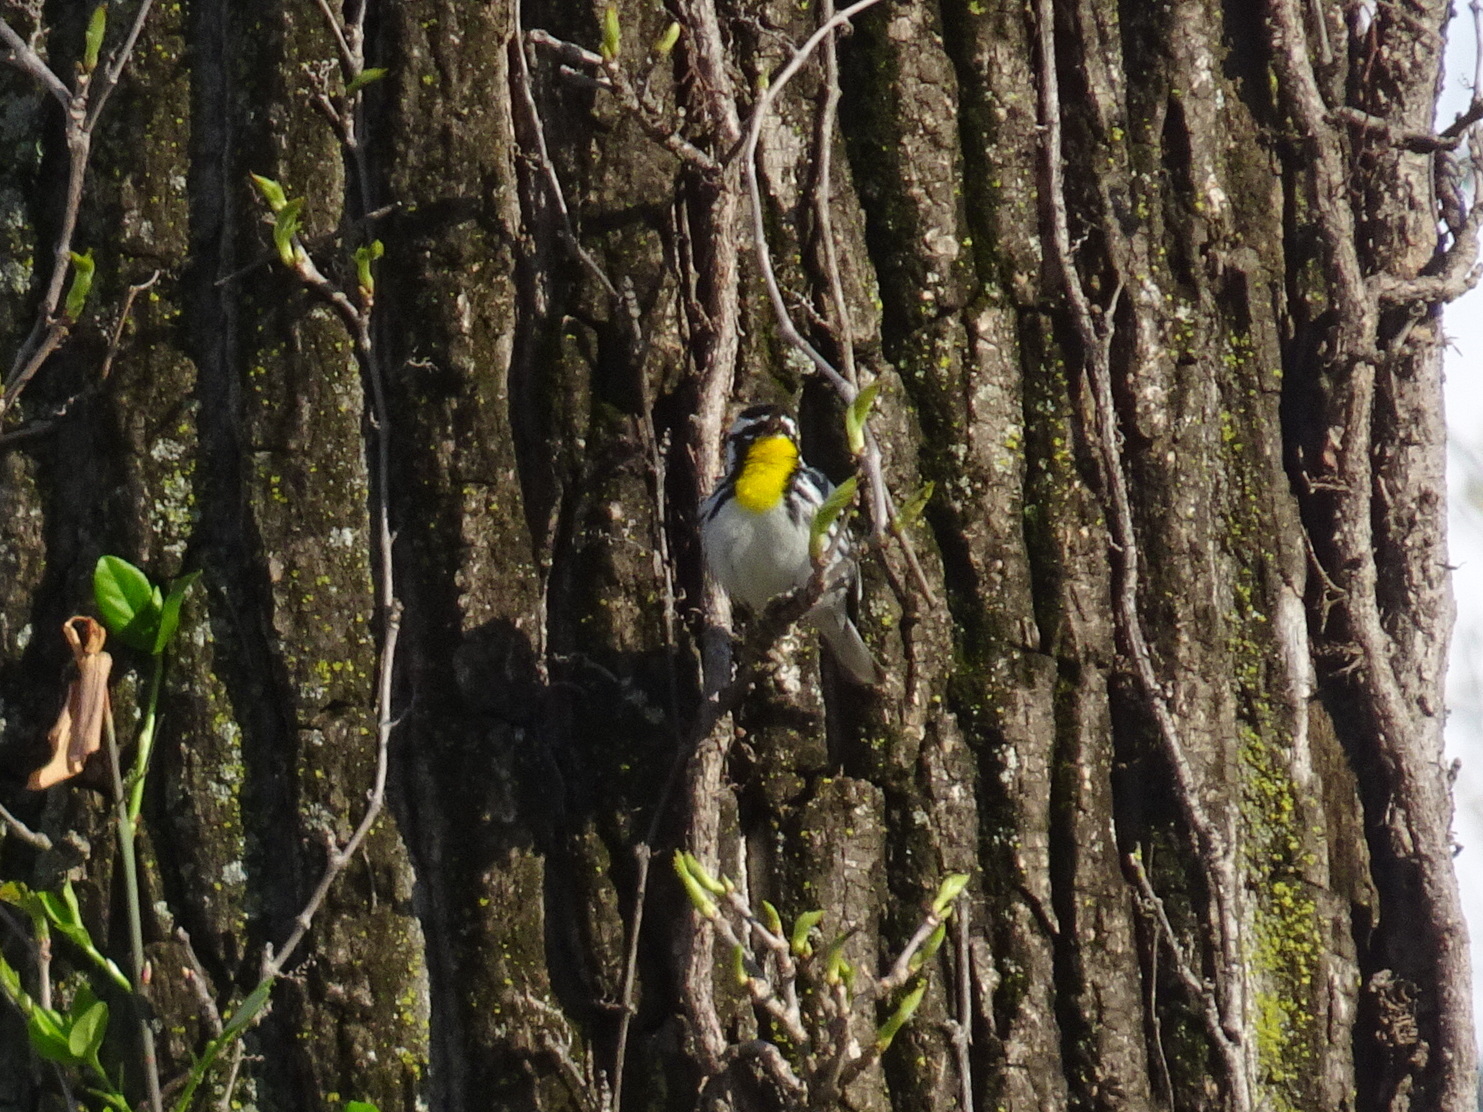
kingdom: Animalia
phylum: Chordata
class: Aves
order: Passeriformes
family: Parulidae
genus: Setophaga
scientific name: Setophaga dominica
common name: Yellow-throated warbler
